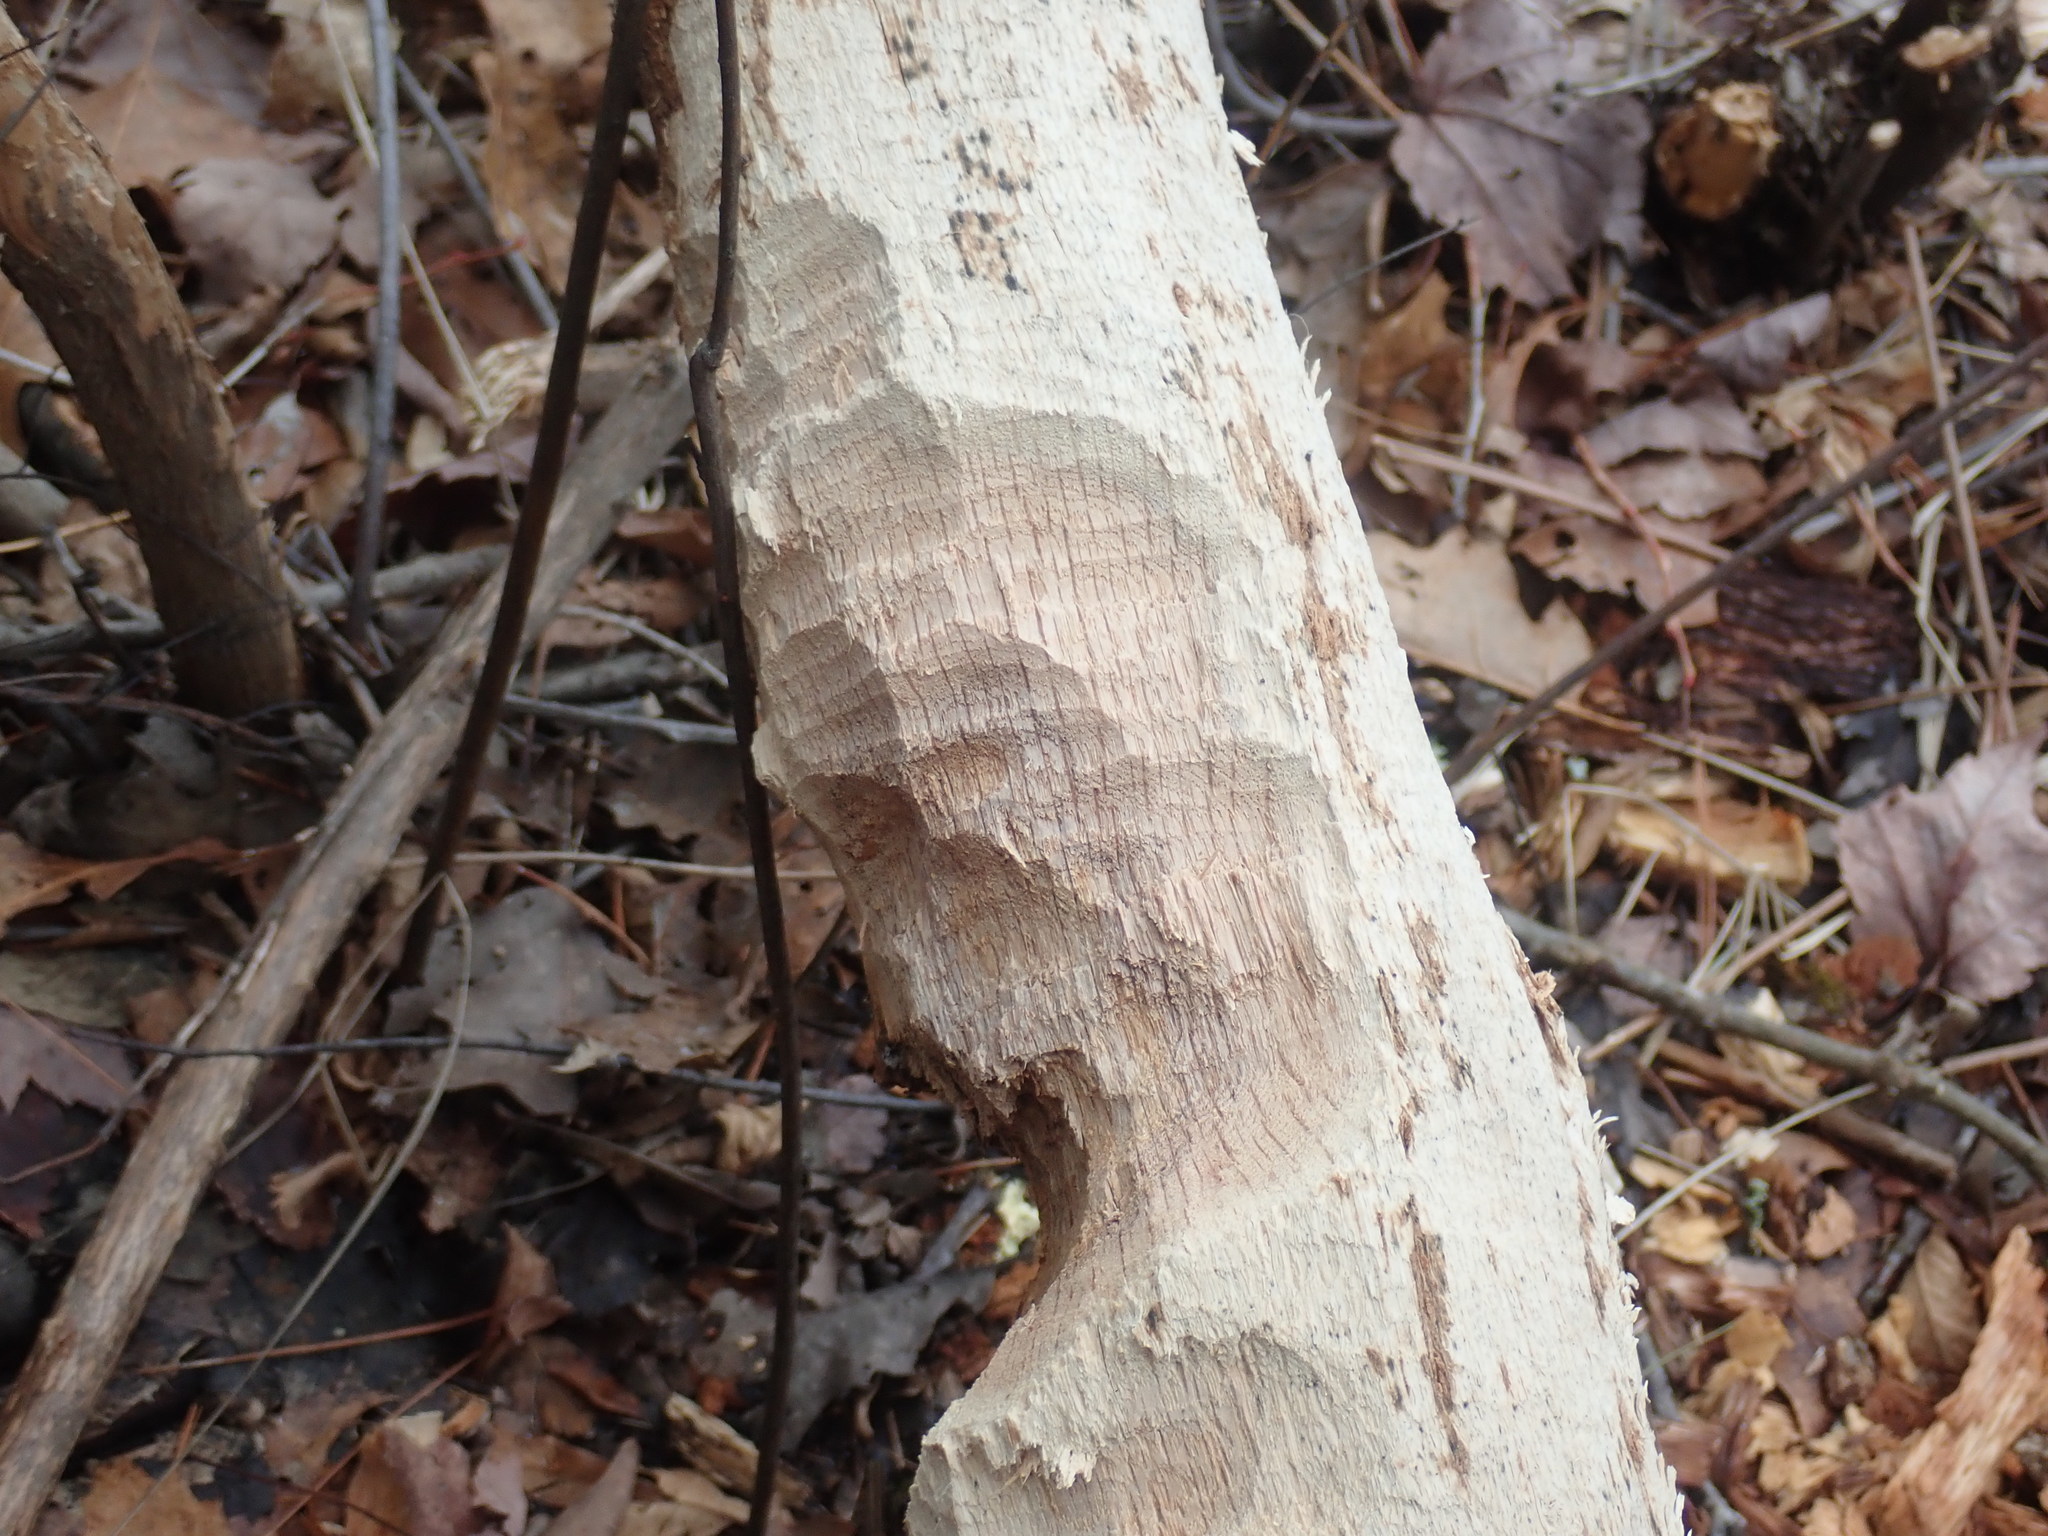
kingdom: Animalia
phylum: Chordata
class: Mammalia
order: Rodentia
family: Castoridae
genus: Castor
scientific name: Castor canadensis
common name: American beaver
